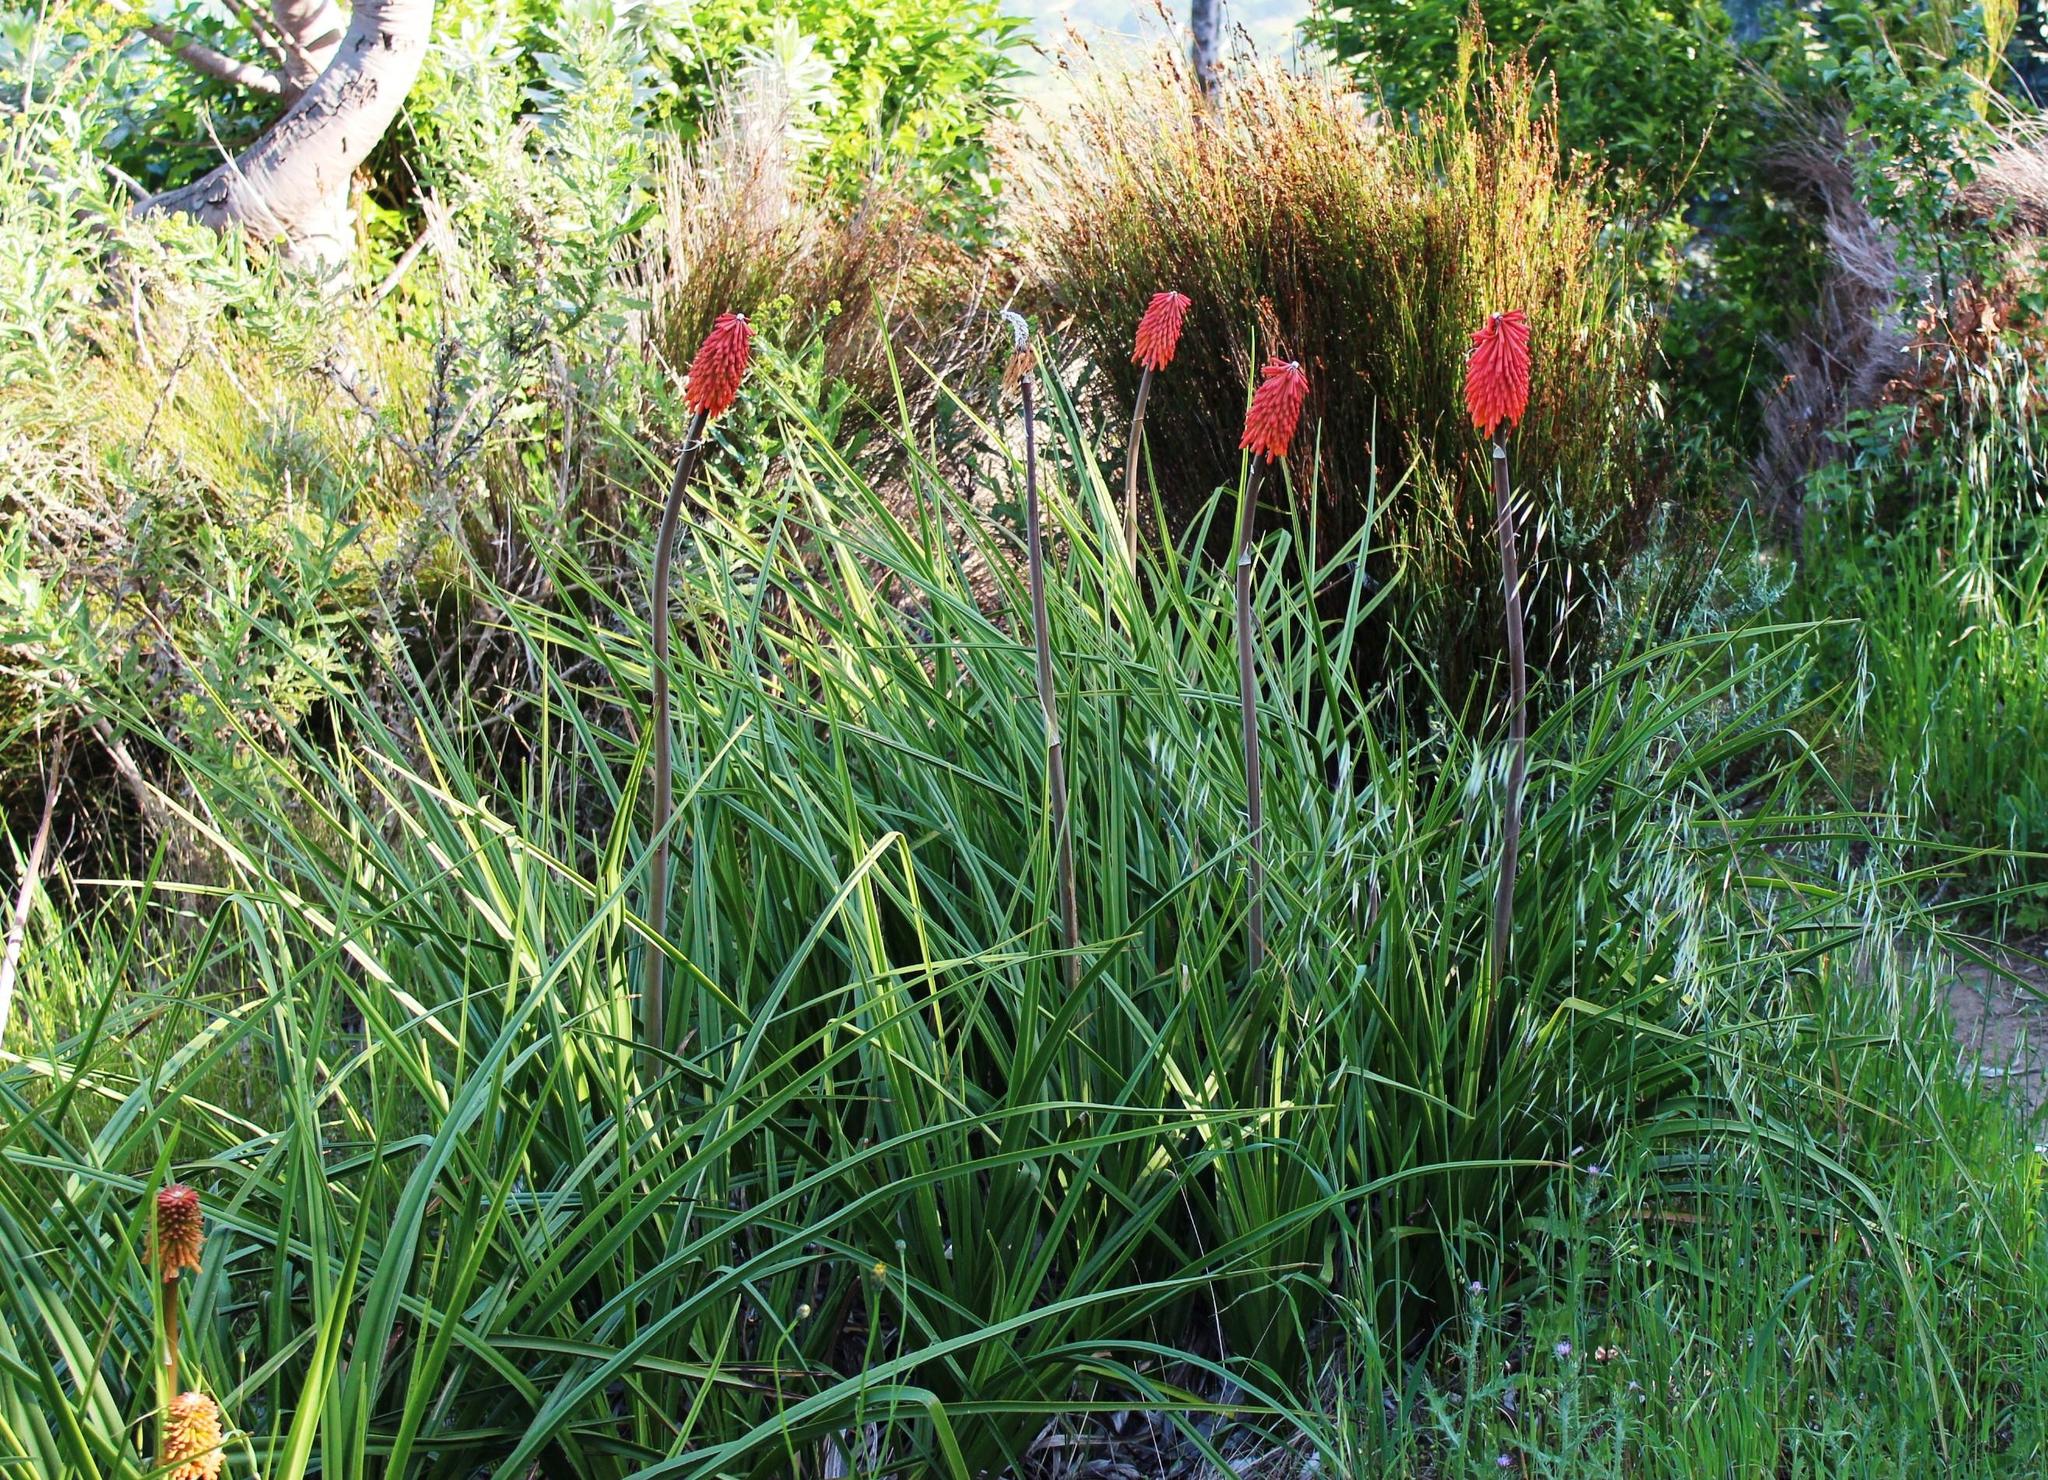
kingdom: Plantae
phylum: Tracheophyta
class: Liliopsida
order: Asparagales
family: Asphodelaceae
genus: Kniphofia
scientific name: Kniphofia uvaria
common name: Red-hot-poker
